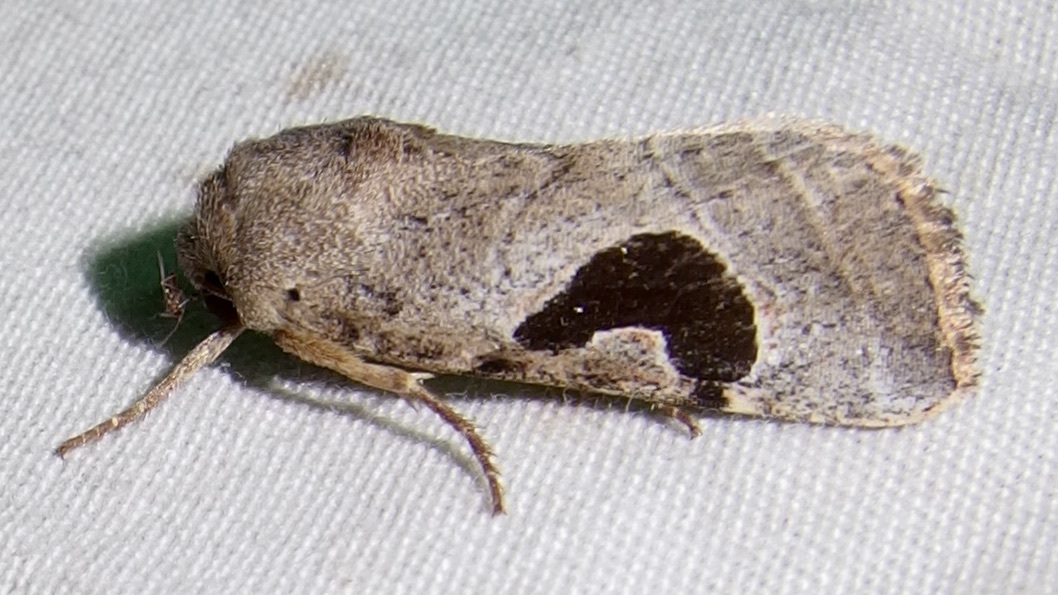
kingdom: Animalia
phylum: Arthropoda
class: Insecta
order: Lepidoptera
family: Noctuidae
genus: Eriopyga
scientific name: Eriopyga lunata
